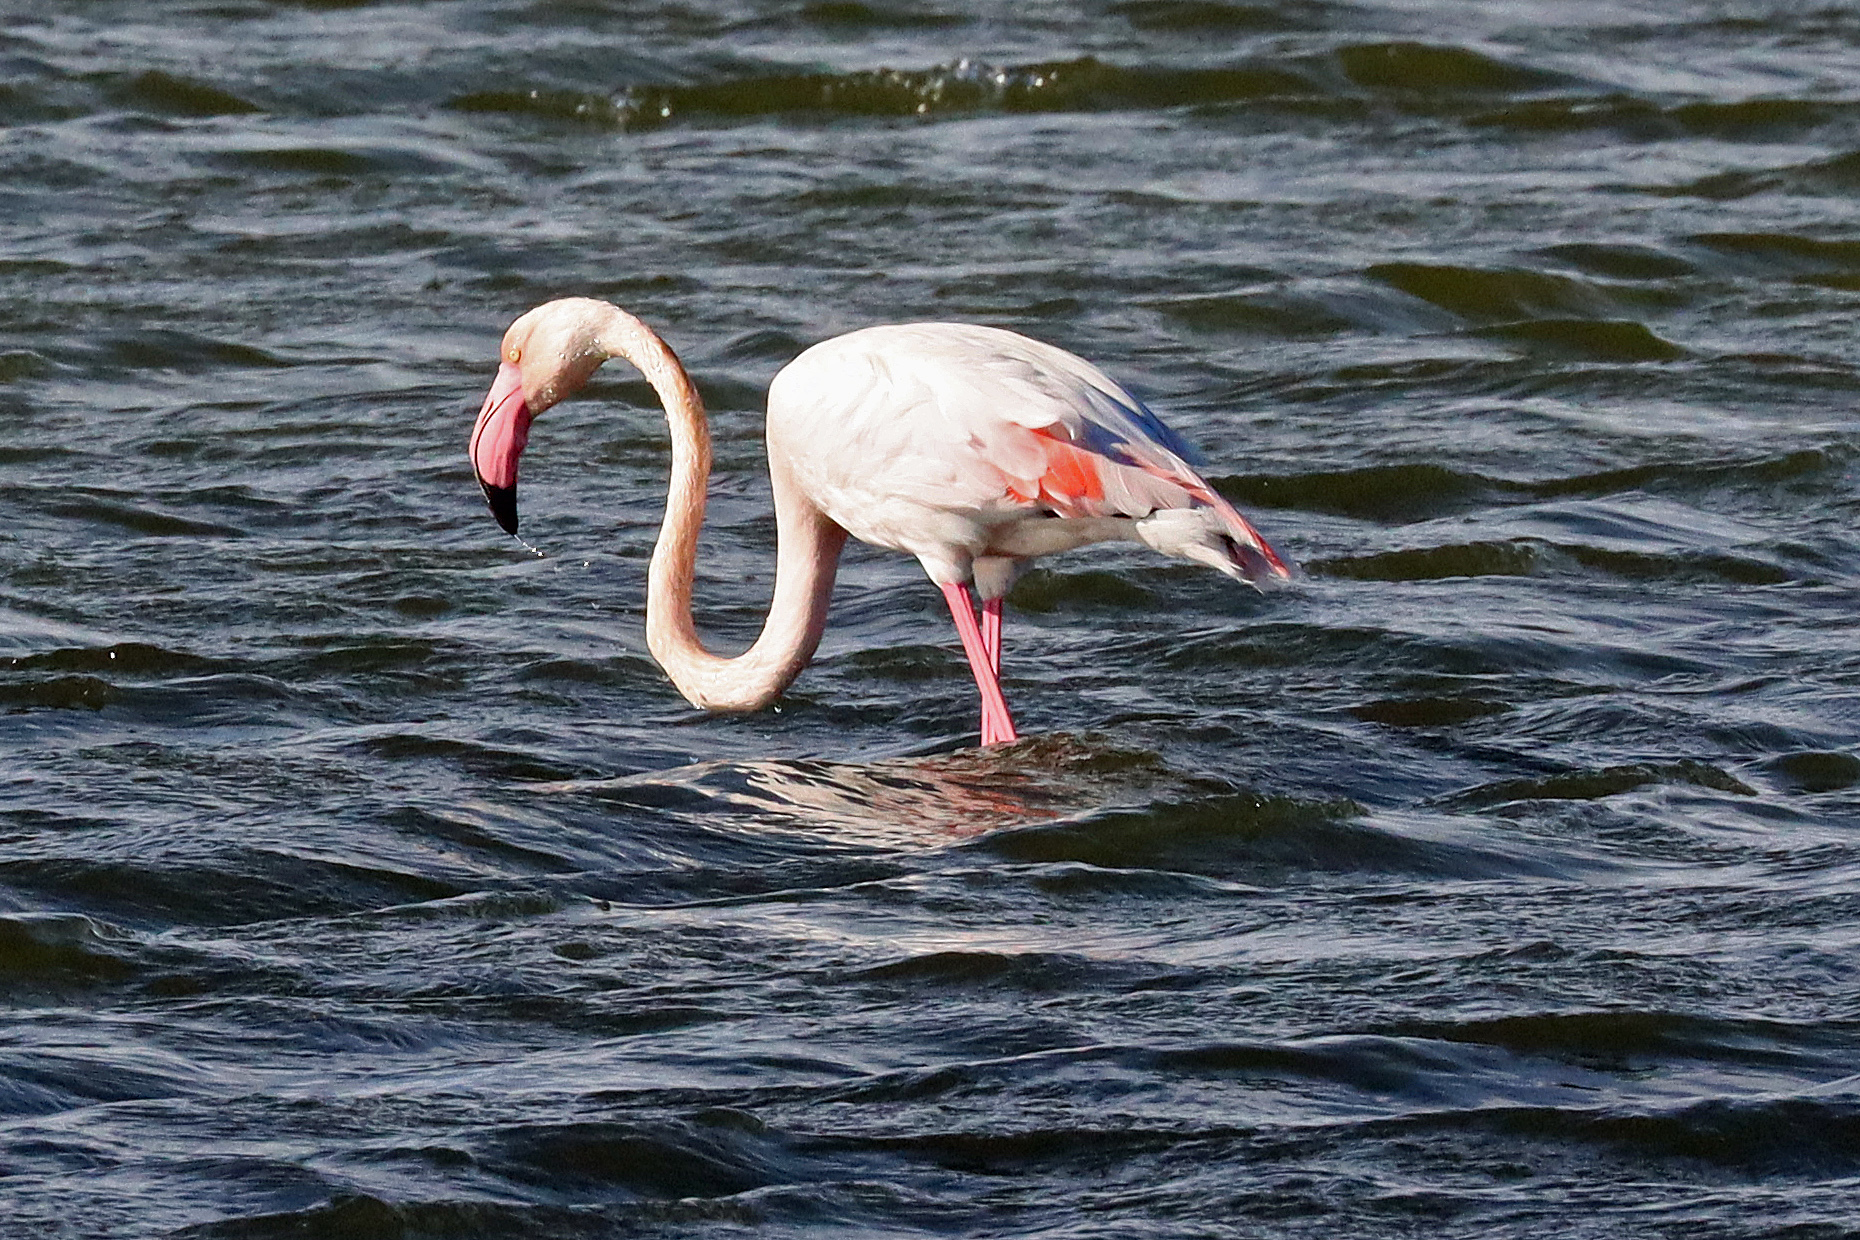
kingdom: Animalia
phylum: Chordata
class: Aves
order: Phoenicopteriformes
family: Phoenicopteridae
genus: Phoenicopterus
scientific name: Phoenicopterus roseus
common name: Greater flamingo
